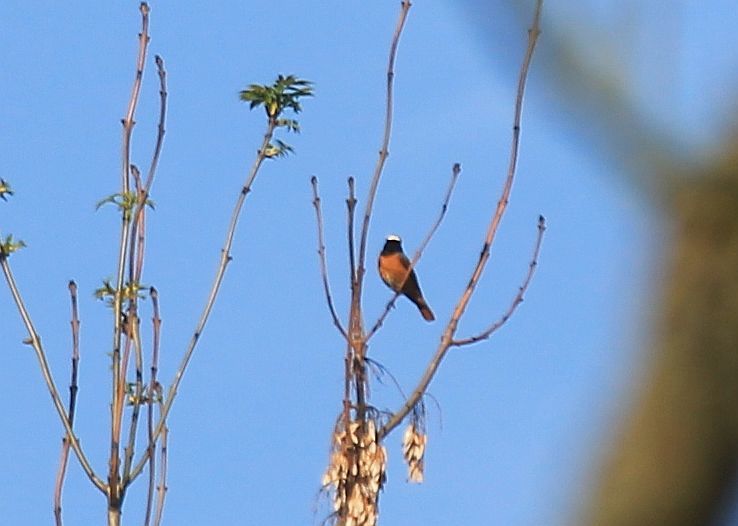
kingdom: Animalia
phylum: Chordata
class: Aves
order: Passeriformes
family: Muscicapidae
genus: Phoenicurus
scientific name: Phoenicurus phoenicurus
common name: Common redstart
